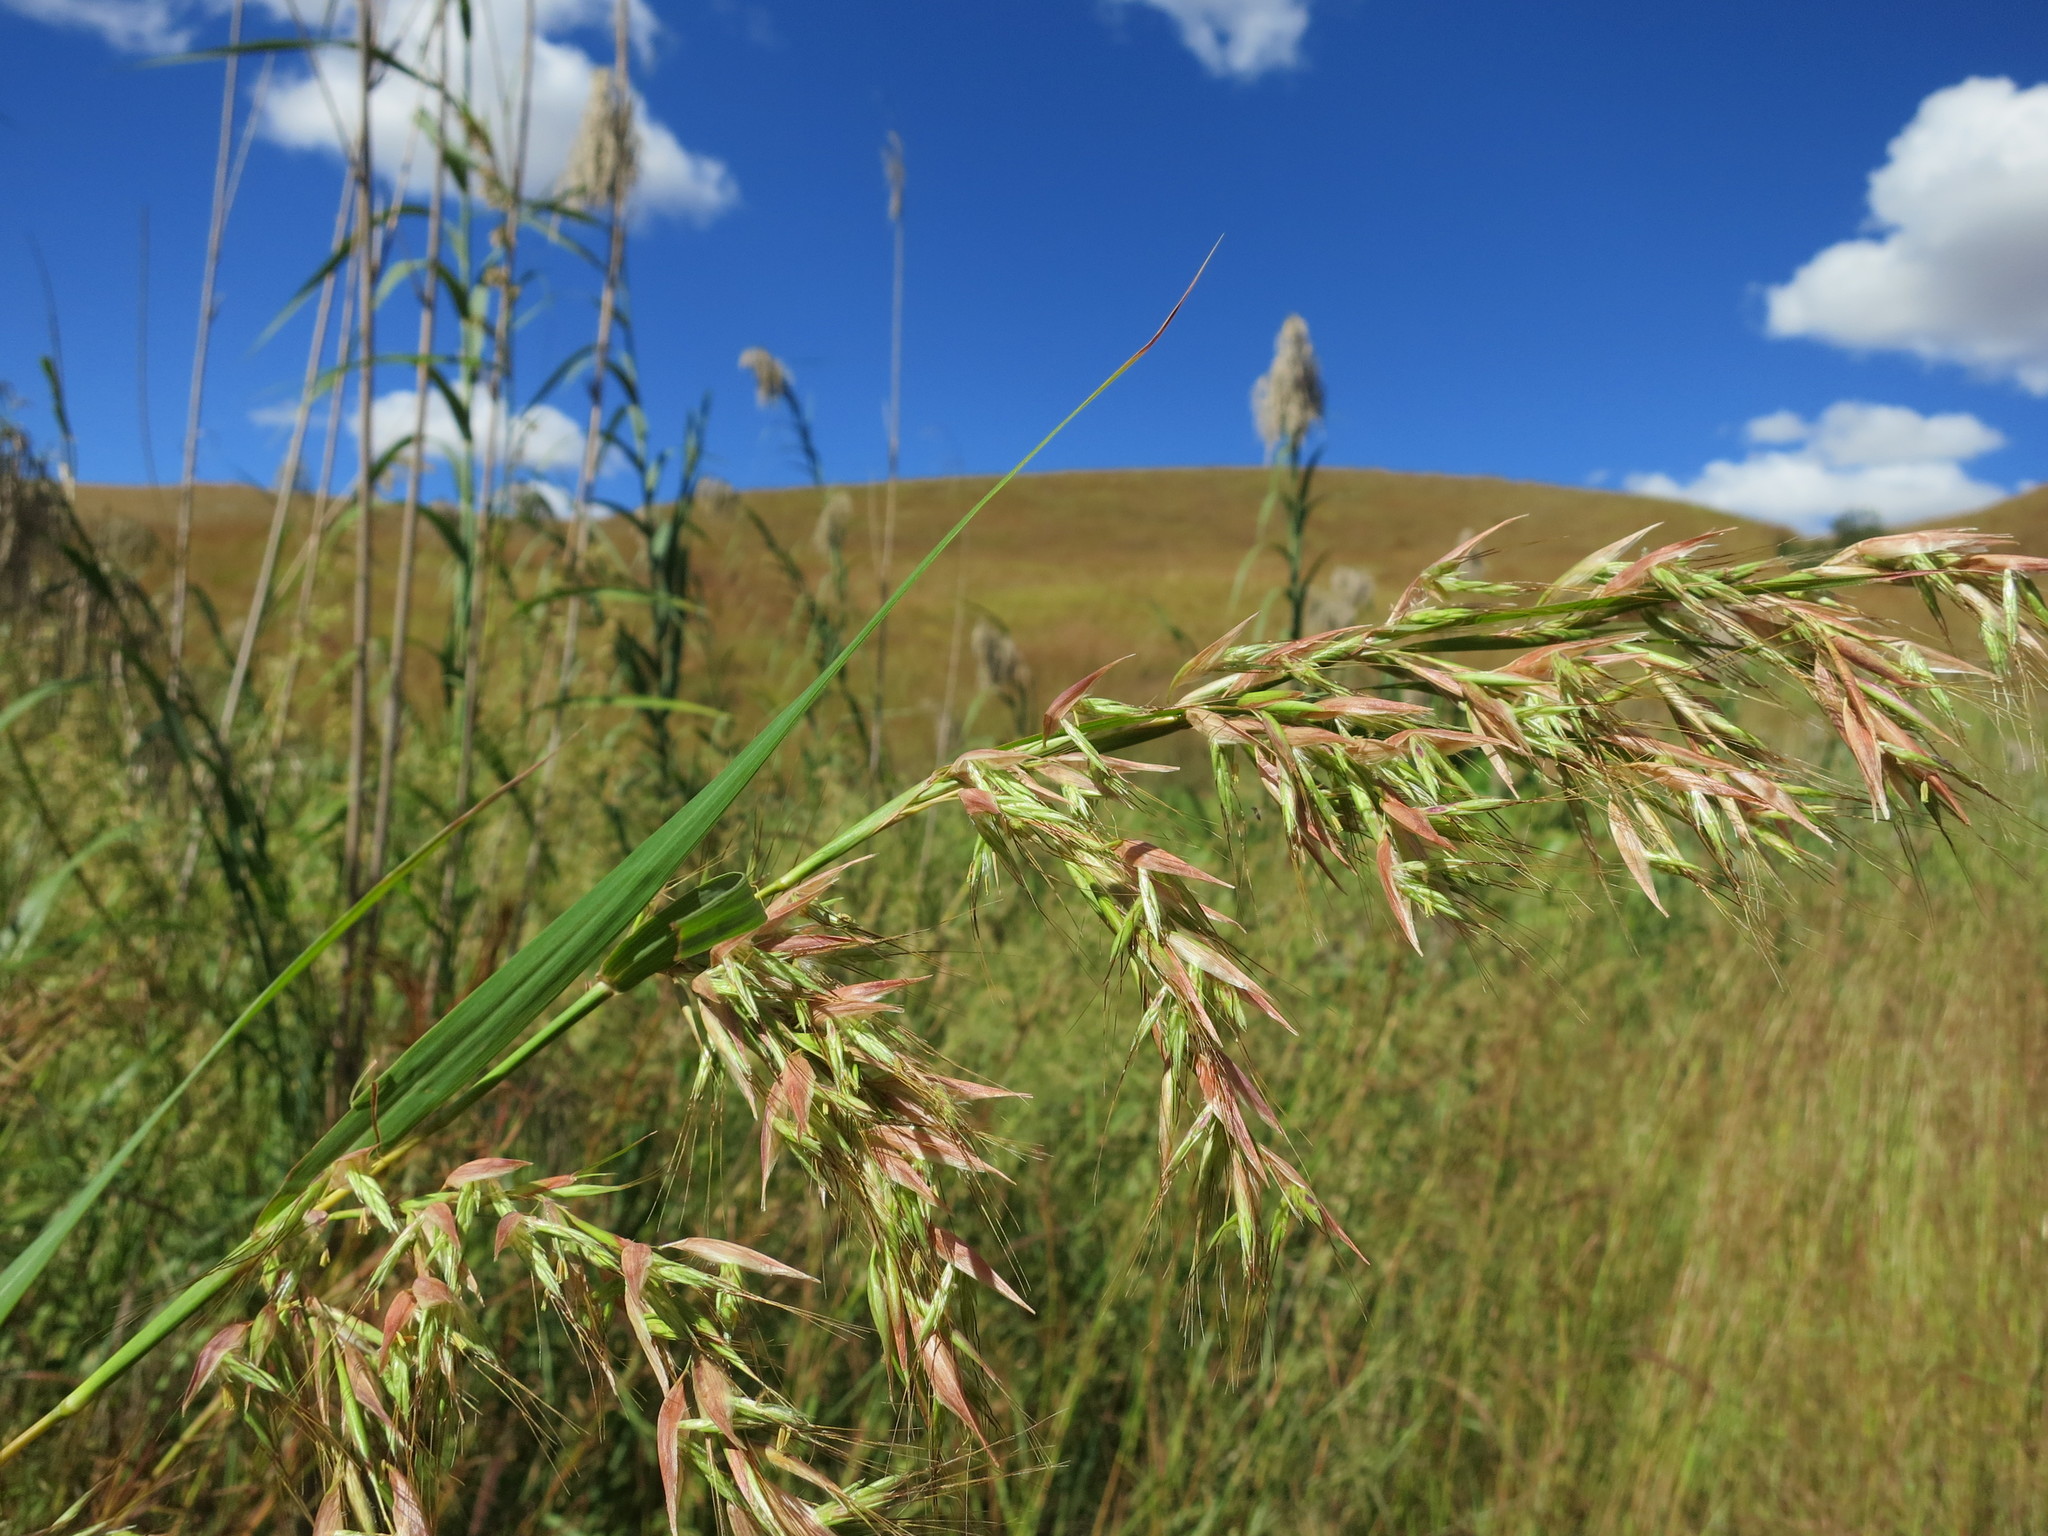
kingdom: Plantae
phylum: Tracheophyta
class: Liliopsida
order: Poales
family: Poaceae
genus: Hyparrhenia
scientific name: Hyparrhenia variabilis
